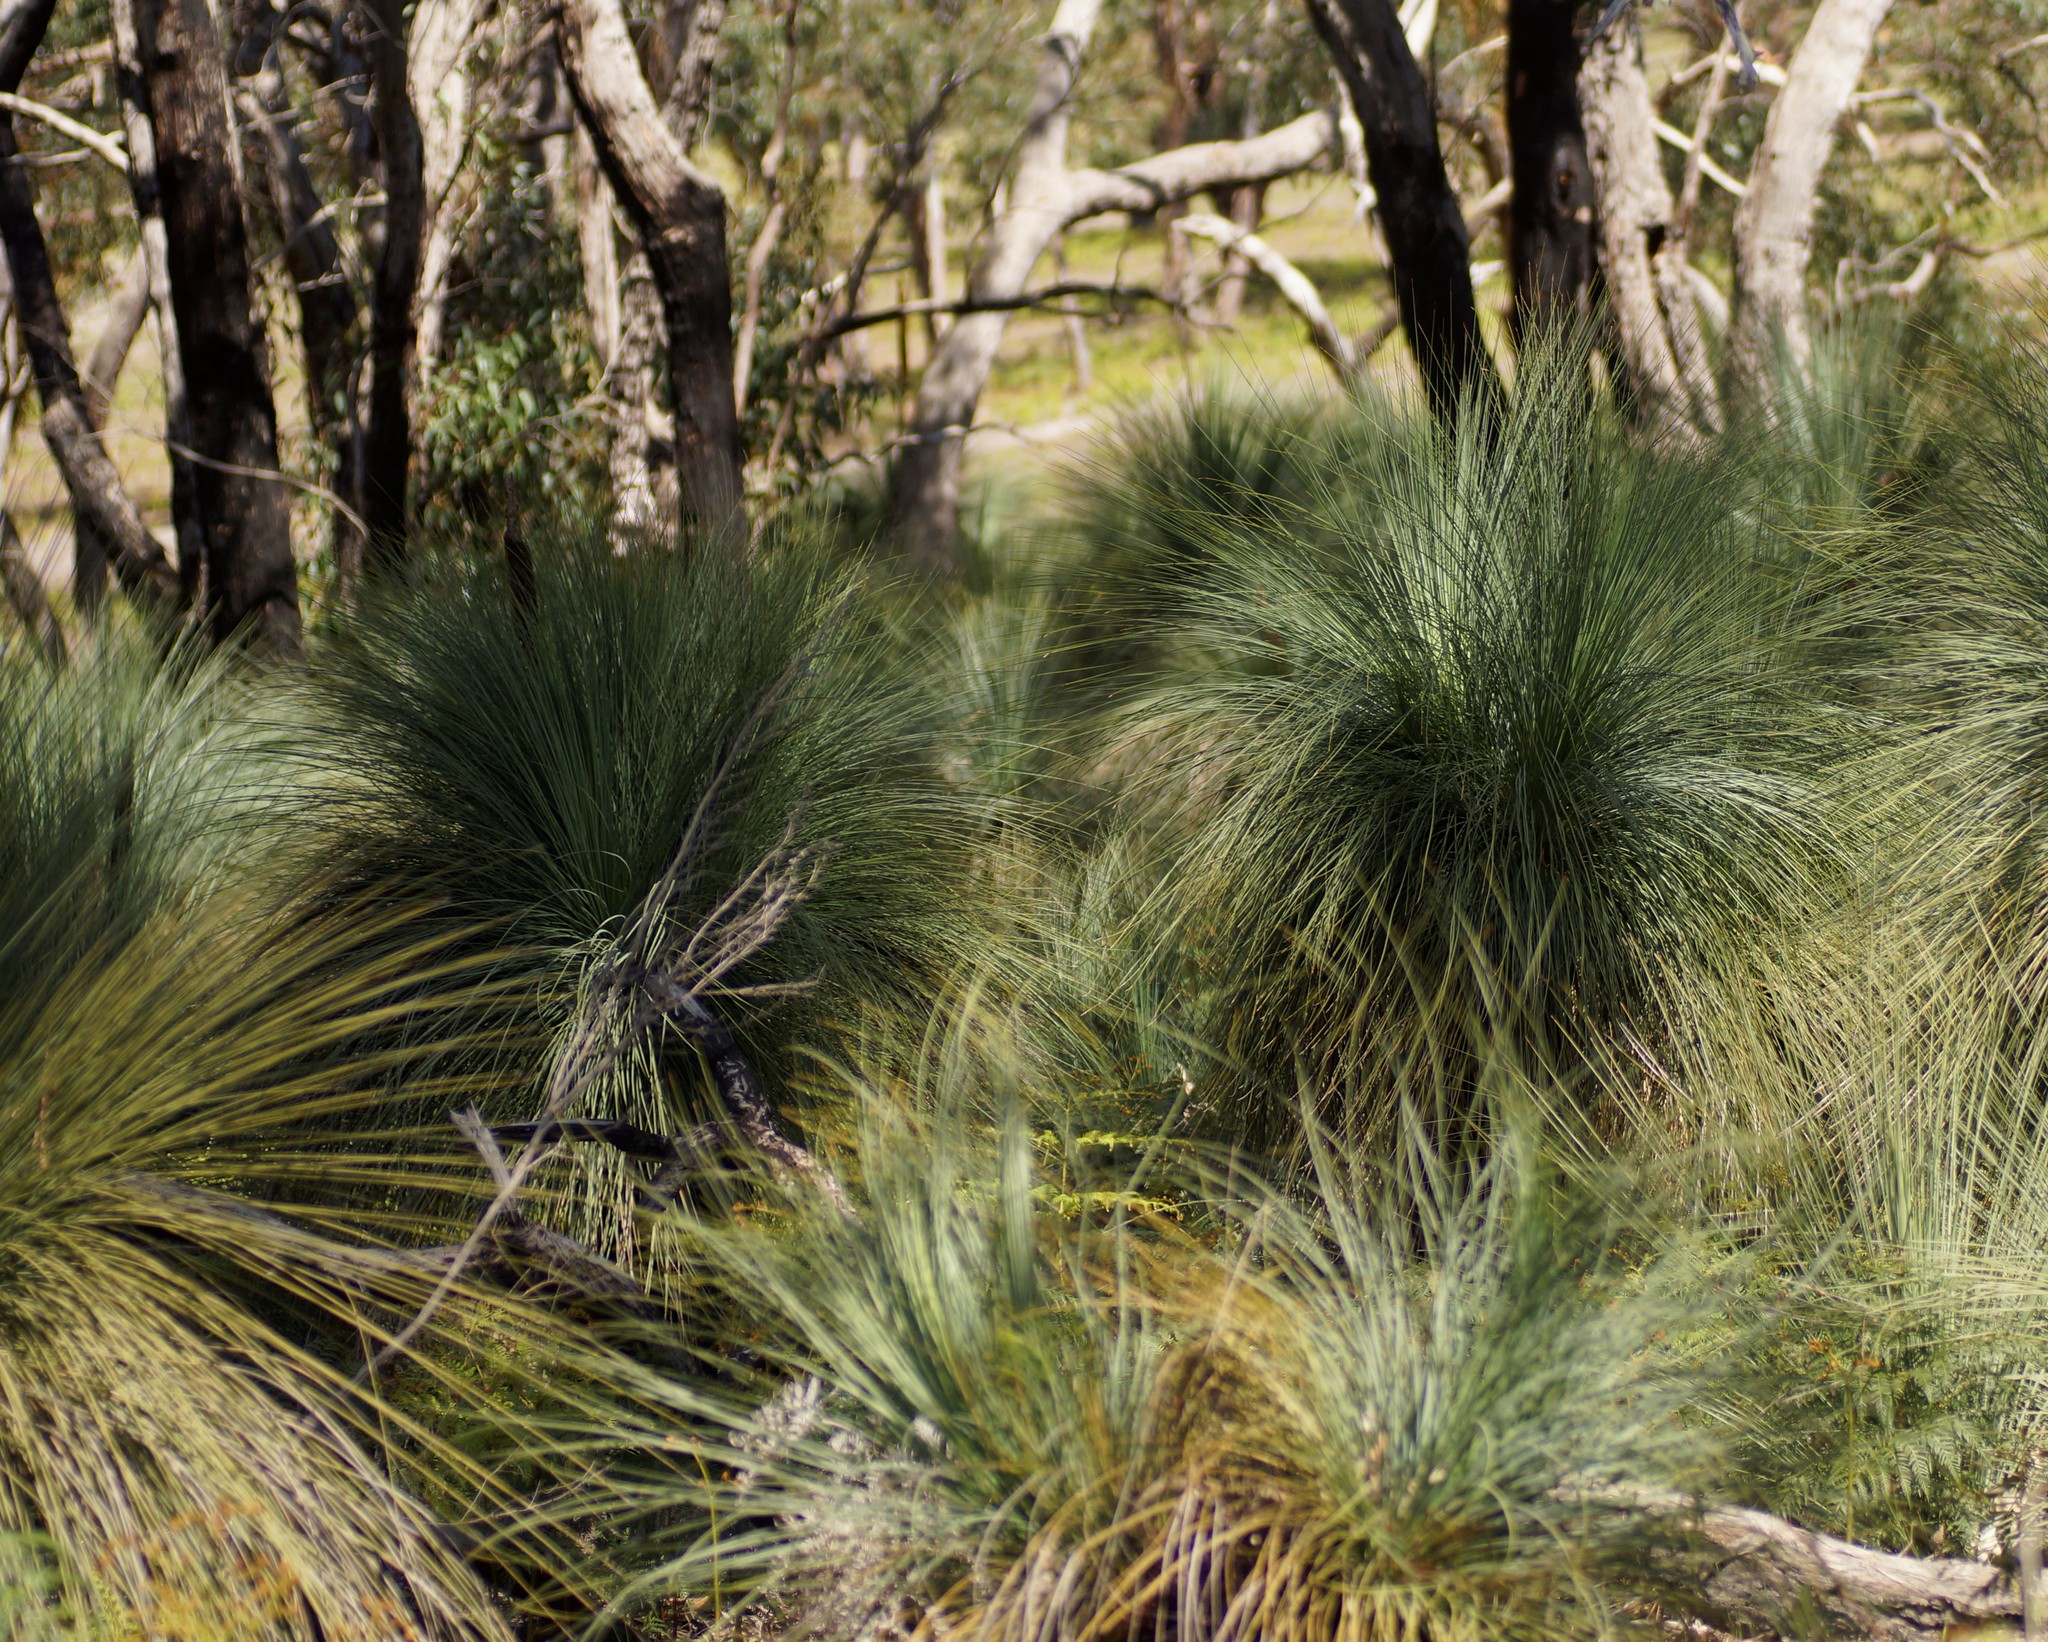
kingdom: Plantae
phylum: Tracheophyta
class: Liliopsida
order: Asparagales
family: Asphodelaceae
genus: Xanthorrhoea
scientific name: Xanthorrhoea australis
